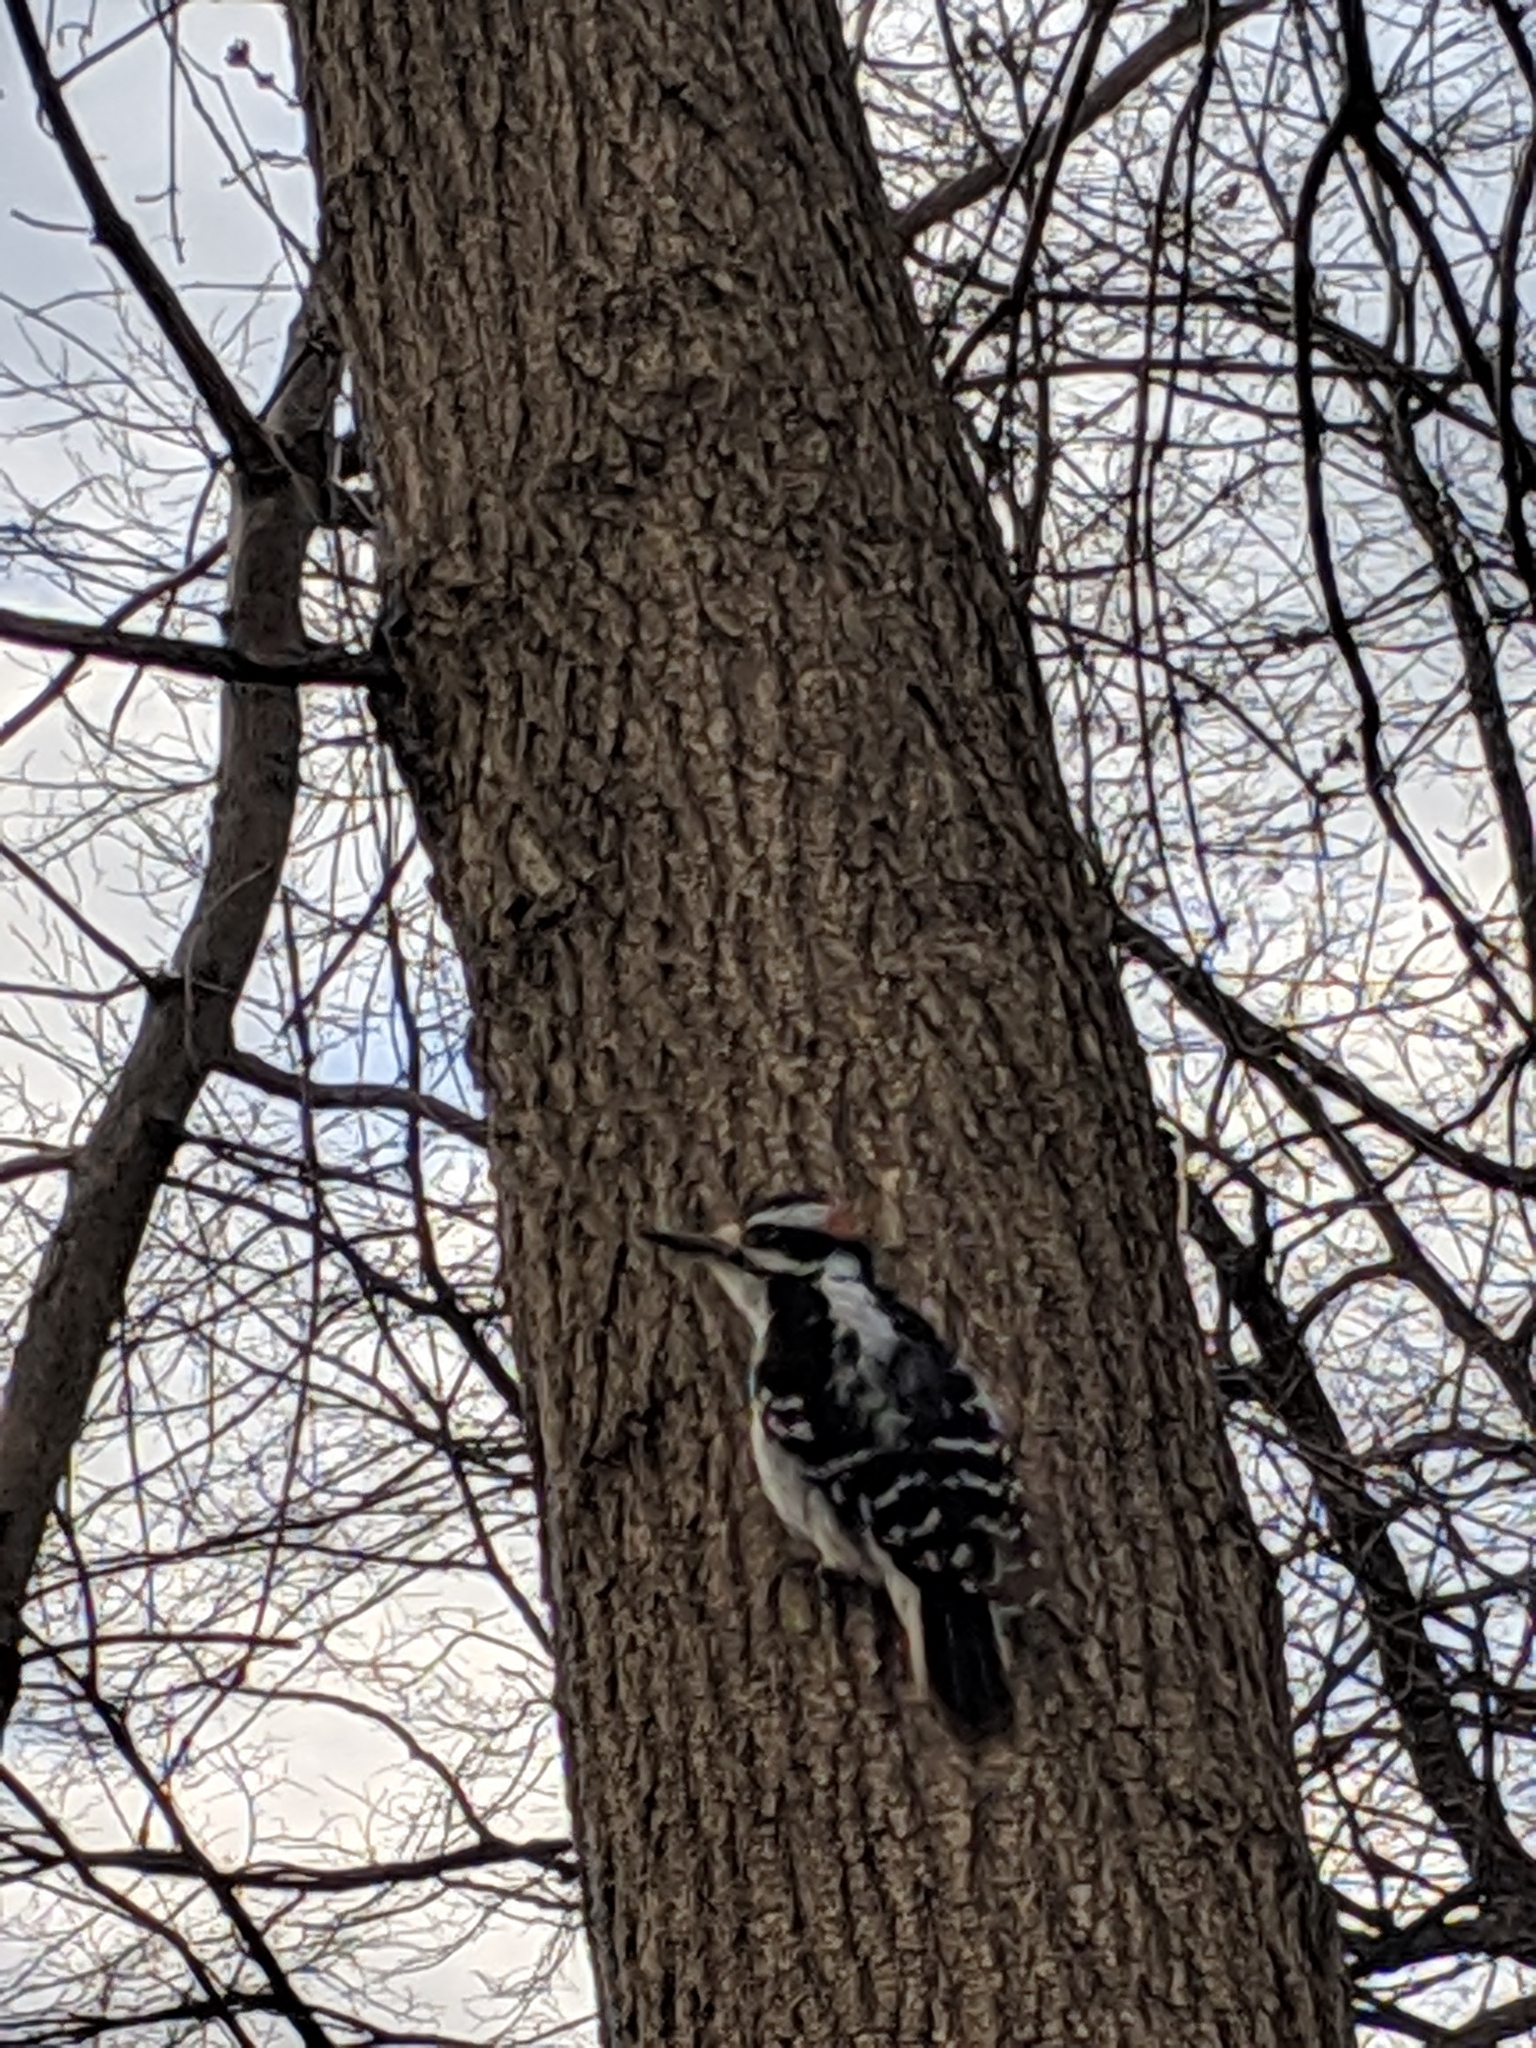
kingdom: Animalia
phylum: Chordata
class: Aves
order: Piciformes
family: Picidae
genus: Leuconotopicus
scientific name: Leuconotopicus villosus
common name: Hairy woodpecker
